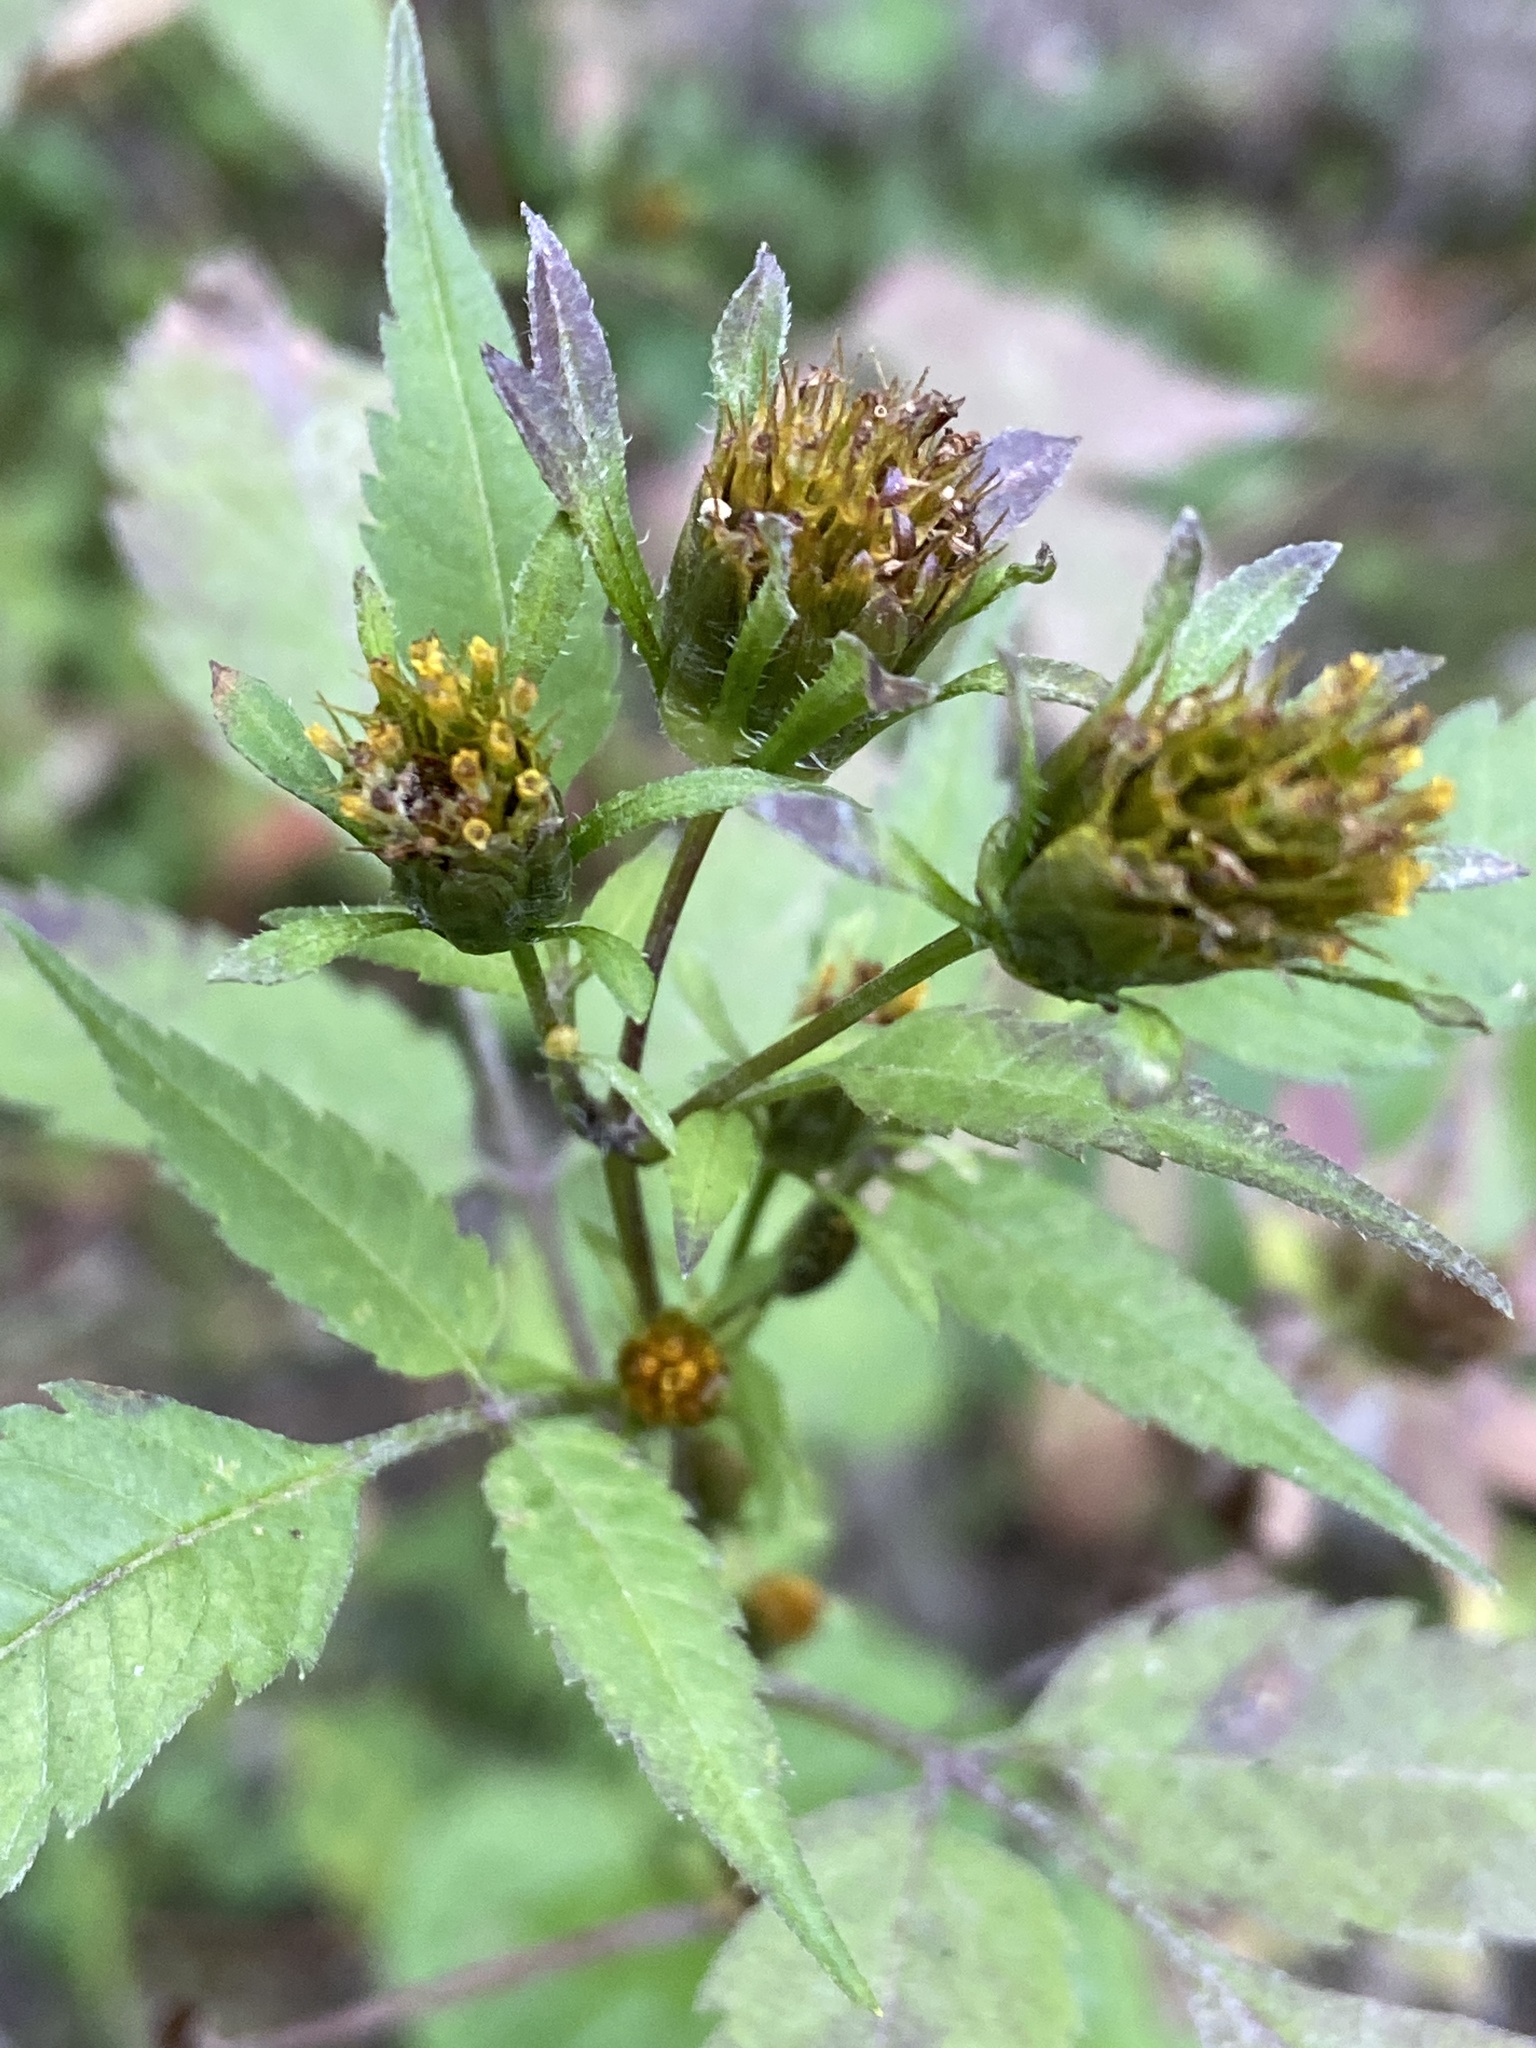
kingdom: Plantae
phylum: Tracheophyta
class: Magnoliopsida
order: Asterales
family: Asteraceae
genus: Bidens
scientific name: Bidens frondosa
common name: Beggarticks
